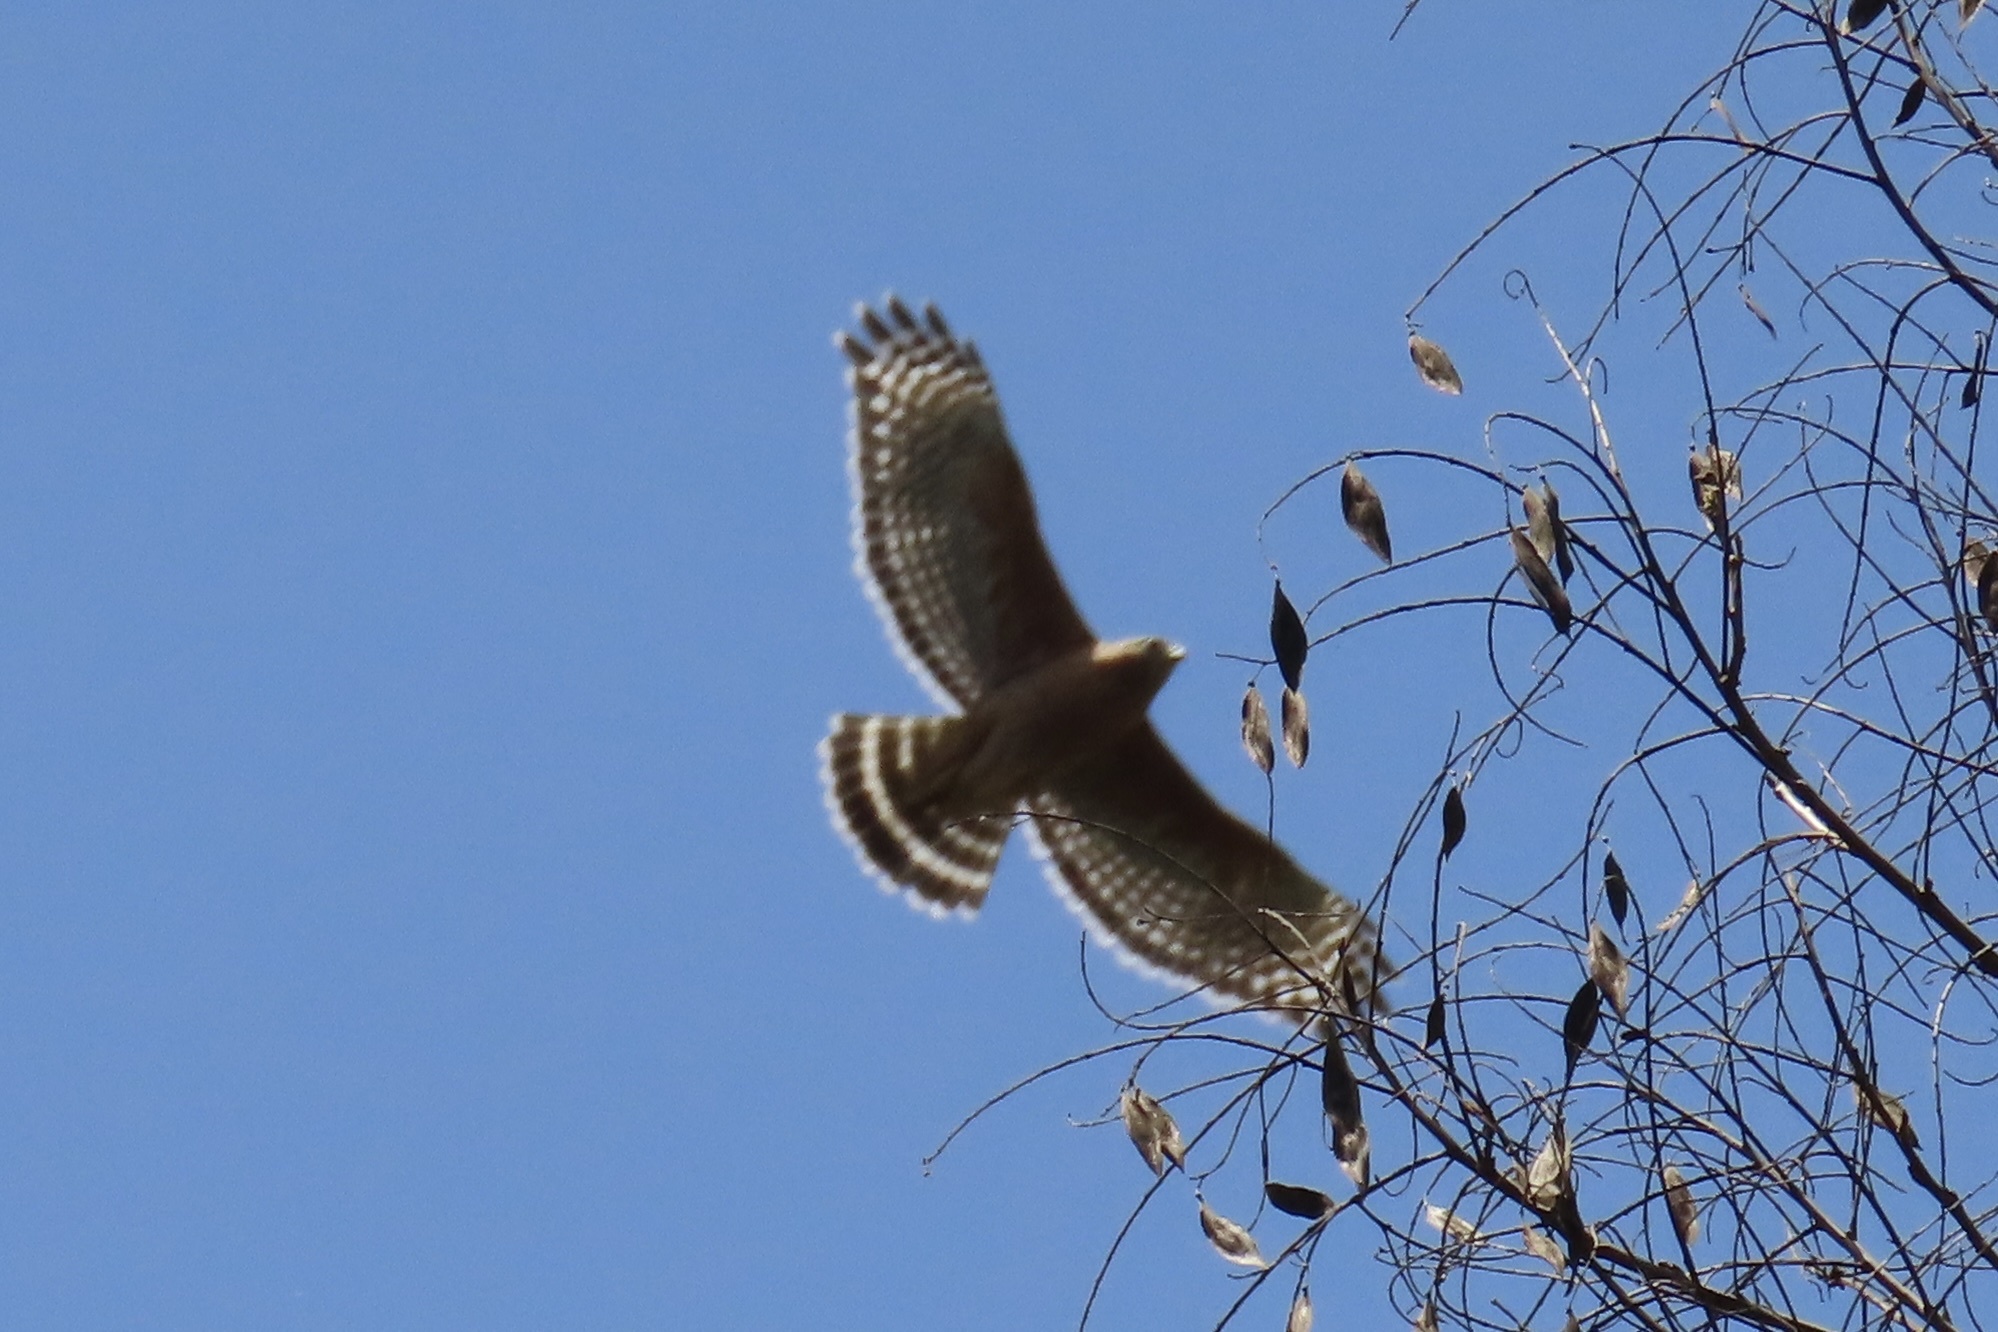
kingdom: Animalia
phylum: Chordata
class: Aves
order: Accipitriformes
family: Accipitridae
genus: Buteo
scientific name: Buteo lineatus
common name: Red-shouldered hawk
